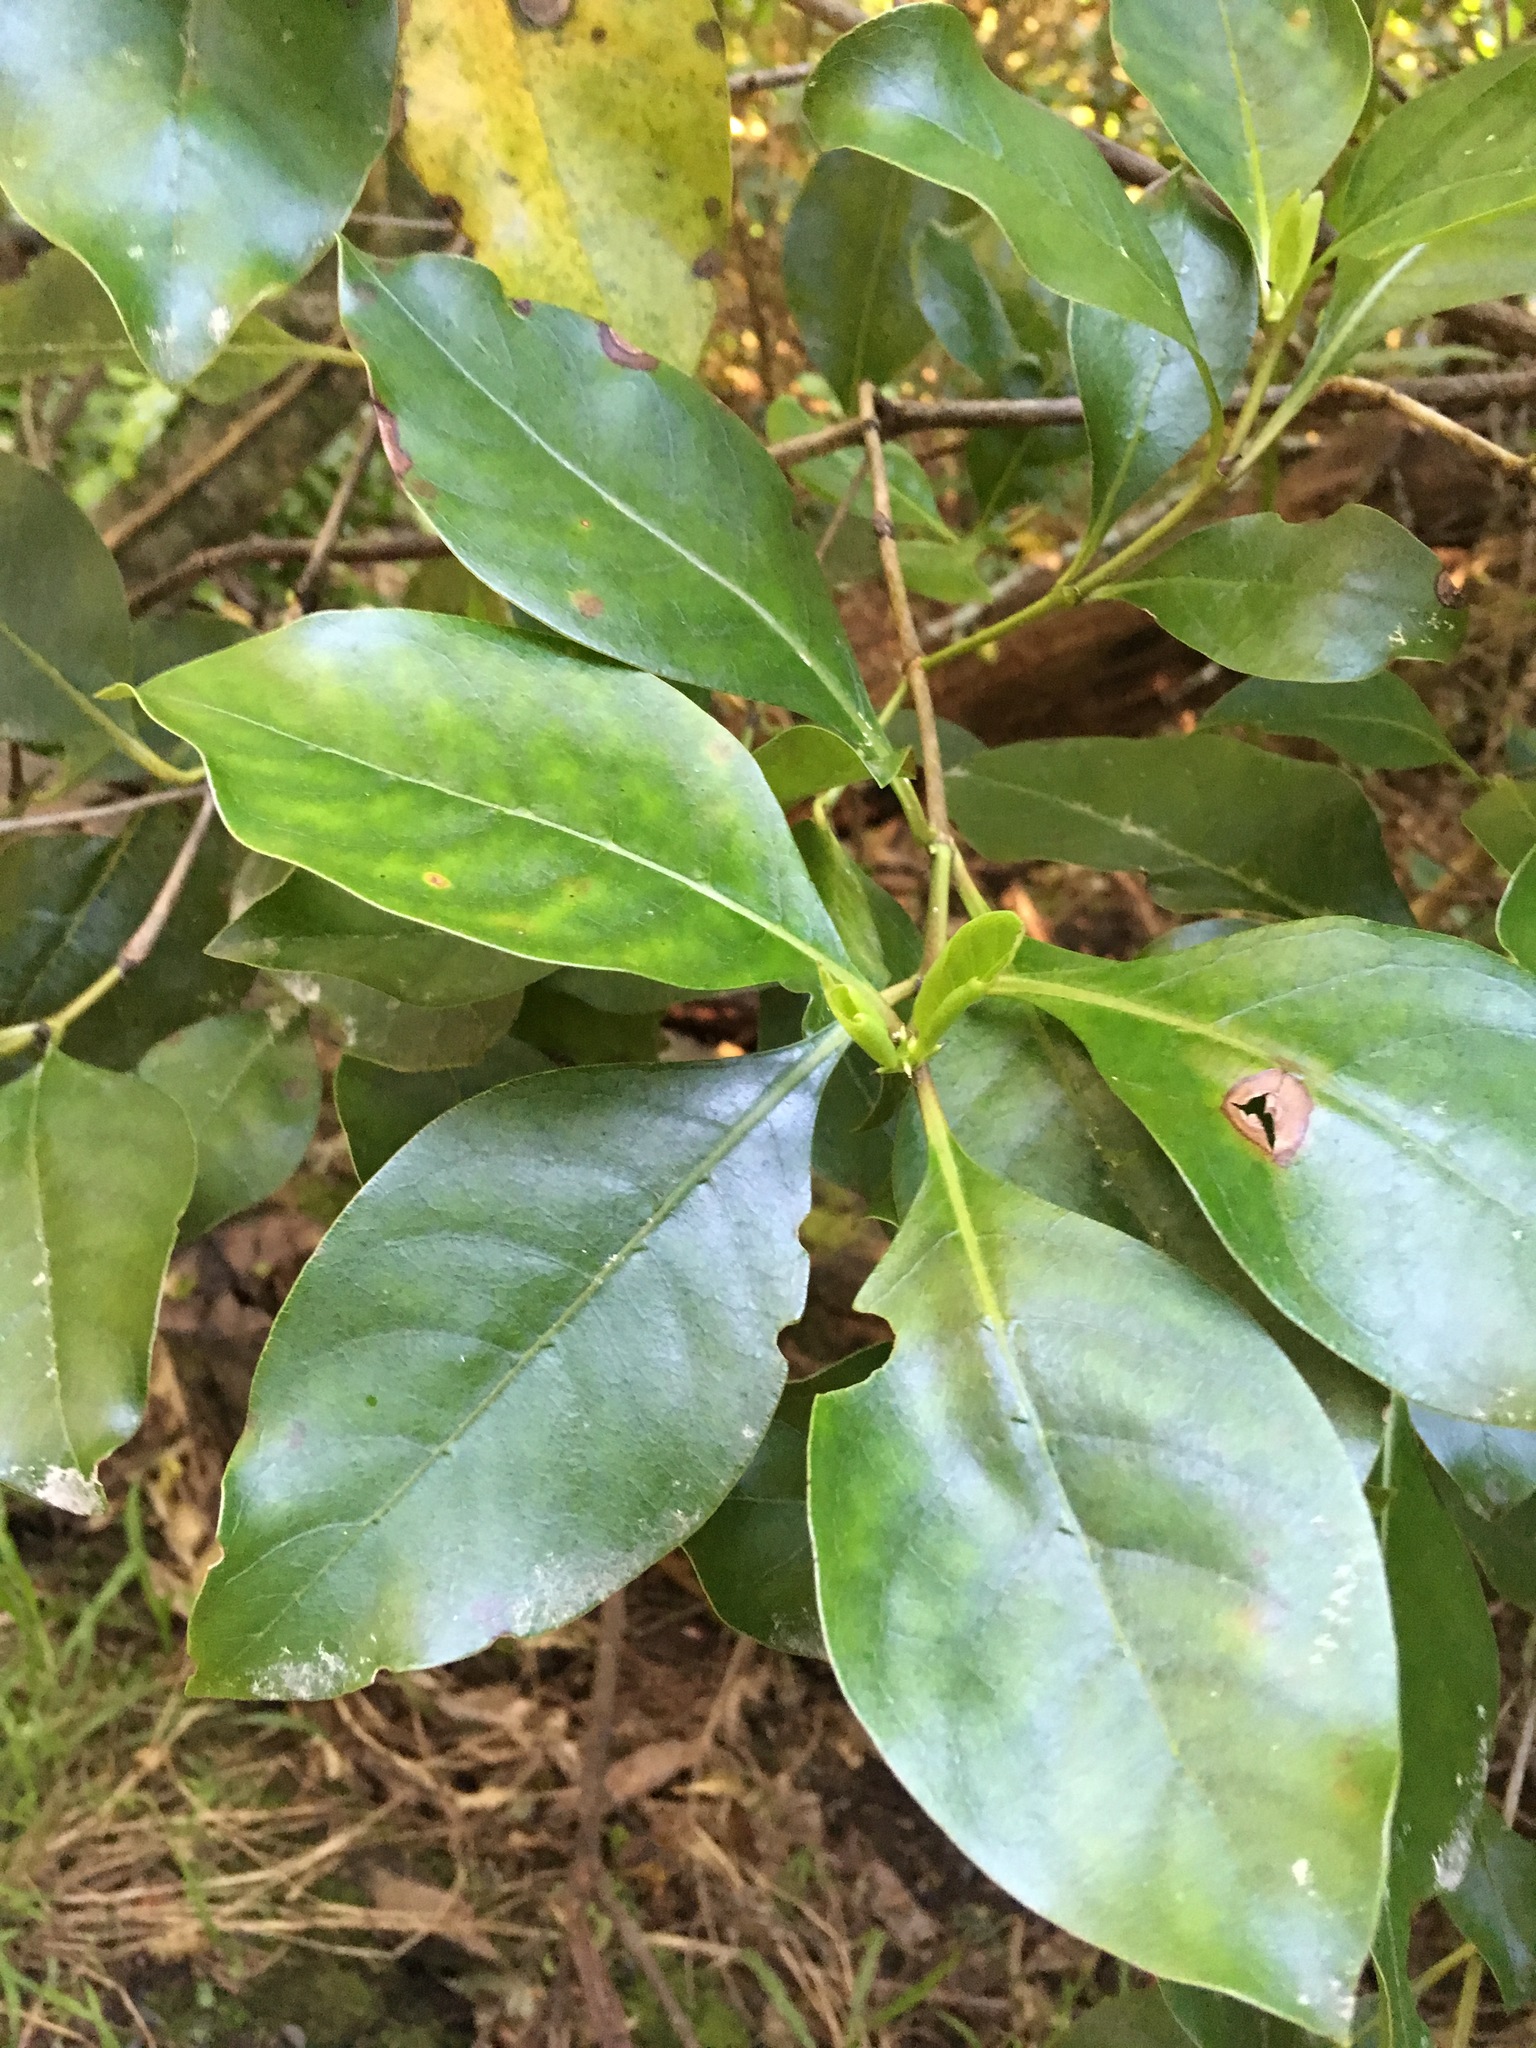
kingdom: Plantae
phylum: Tracheophyta
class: Magnoliopsida
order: Gentianales
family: Rubiaceae
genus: Coprosma
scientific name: Coprosma autumnalis
